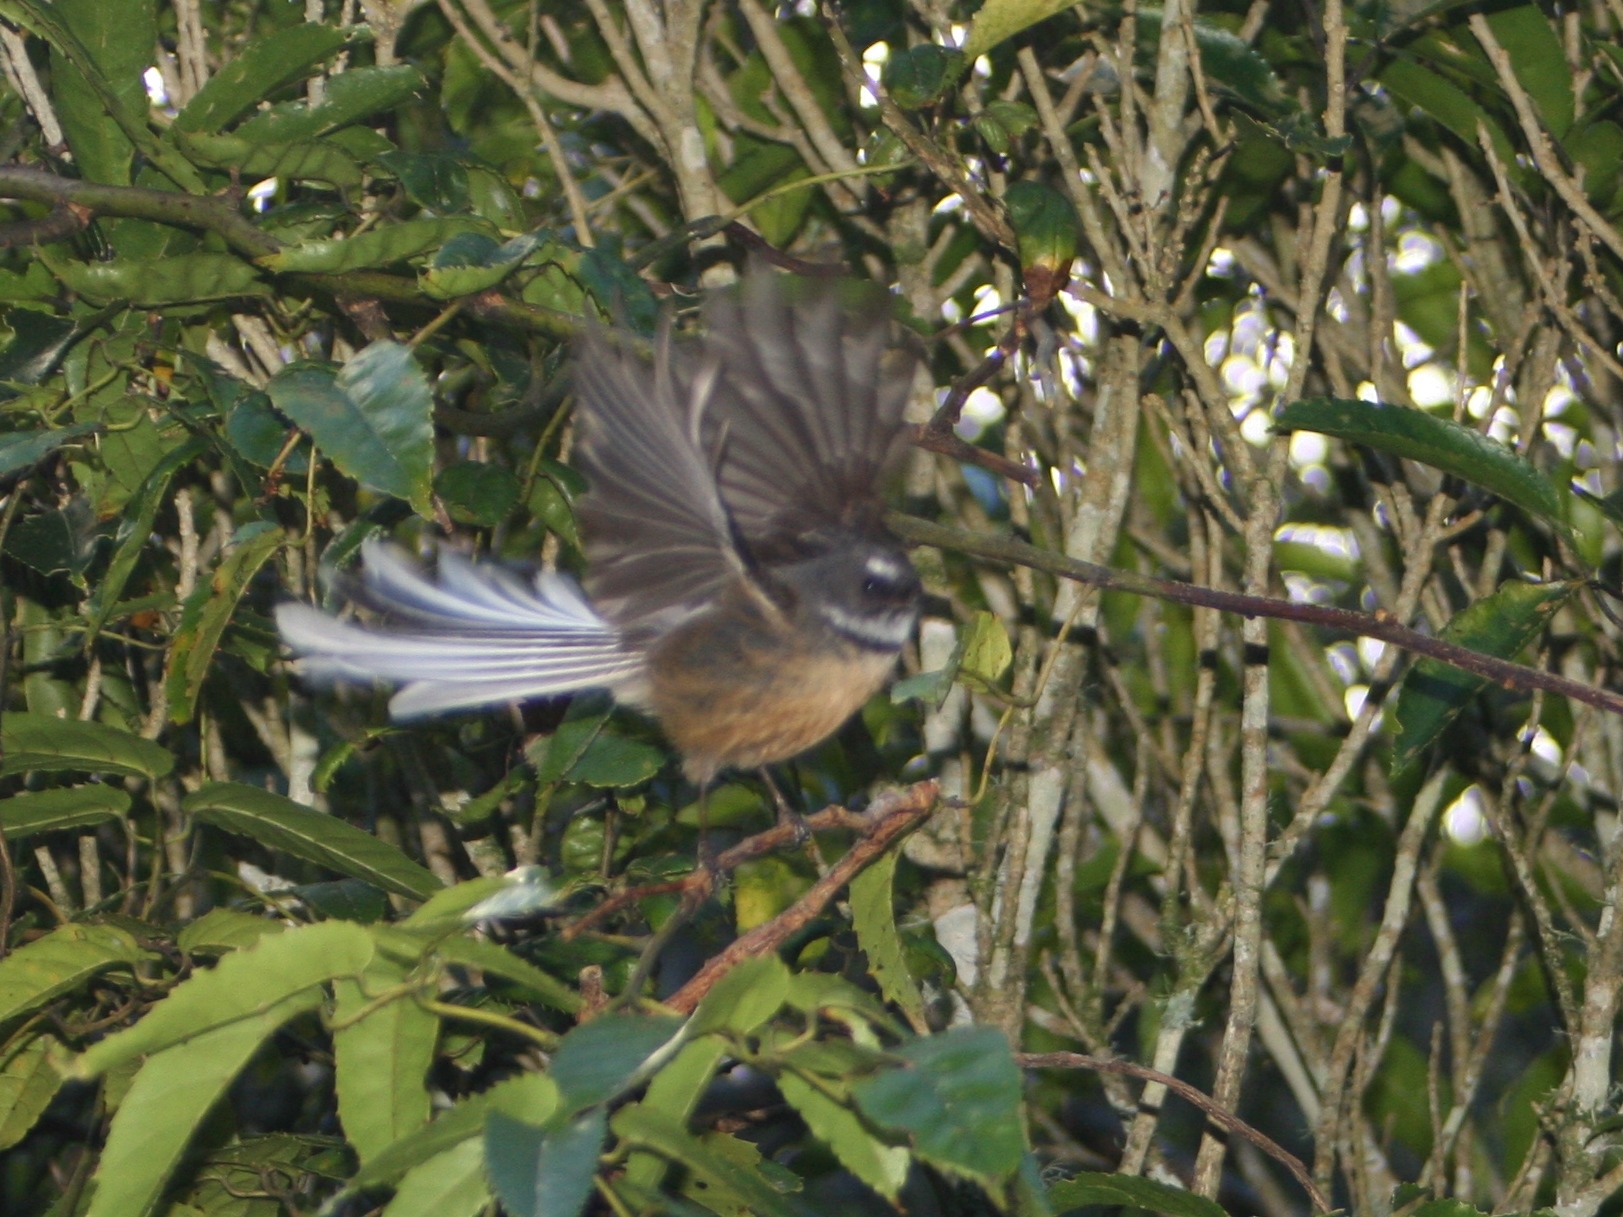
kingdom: Animalia
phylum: Chordata
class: Aves
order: Passeriformes
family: Rhipiduridae
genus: Rhipidura
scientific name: Rhipidura fuliginosa
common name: New zealand fantail
